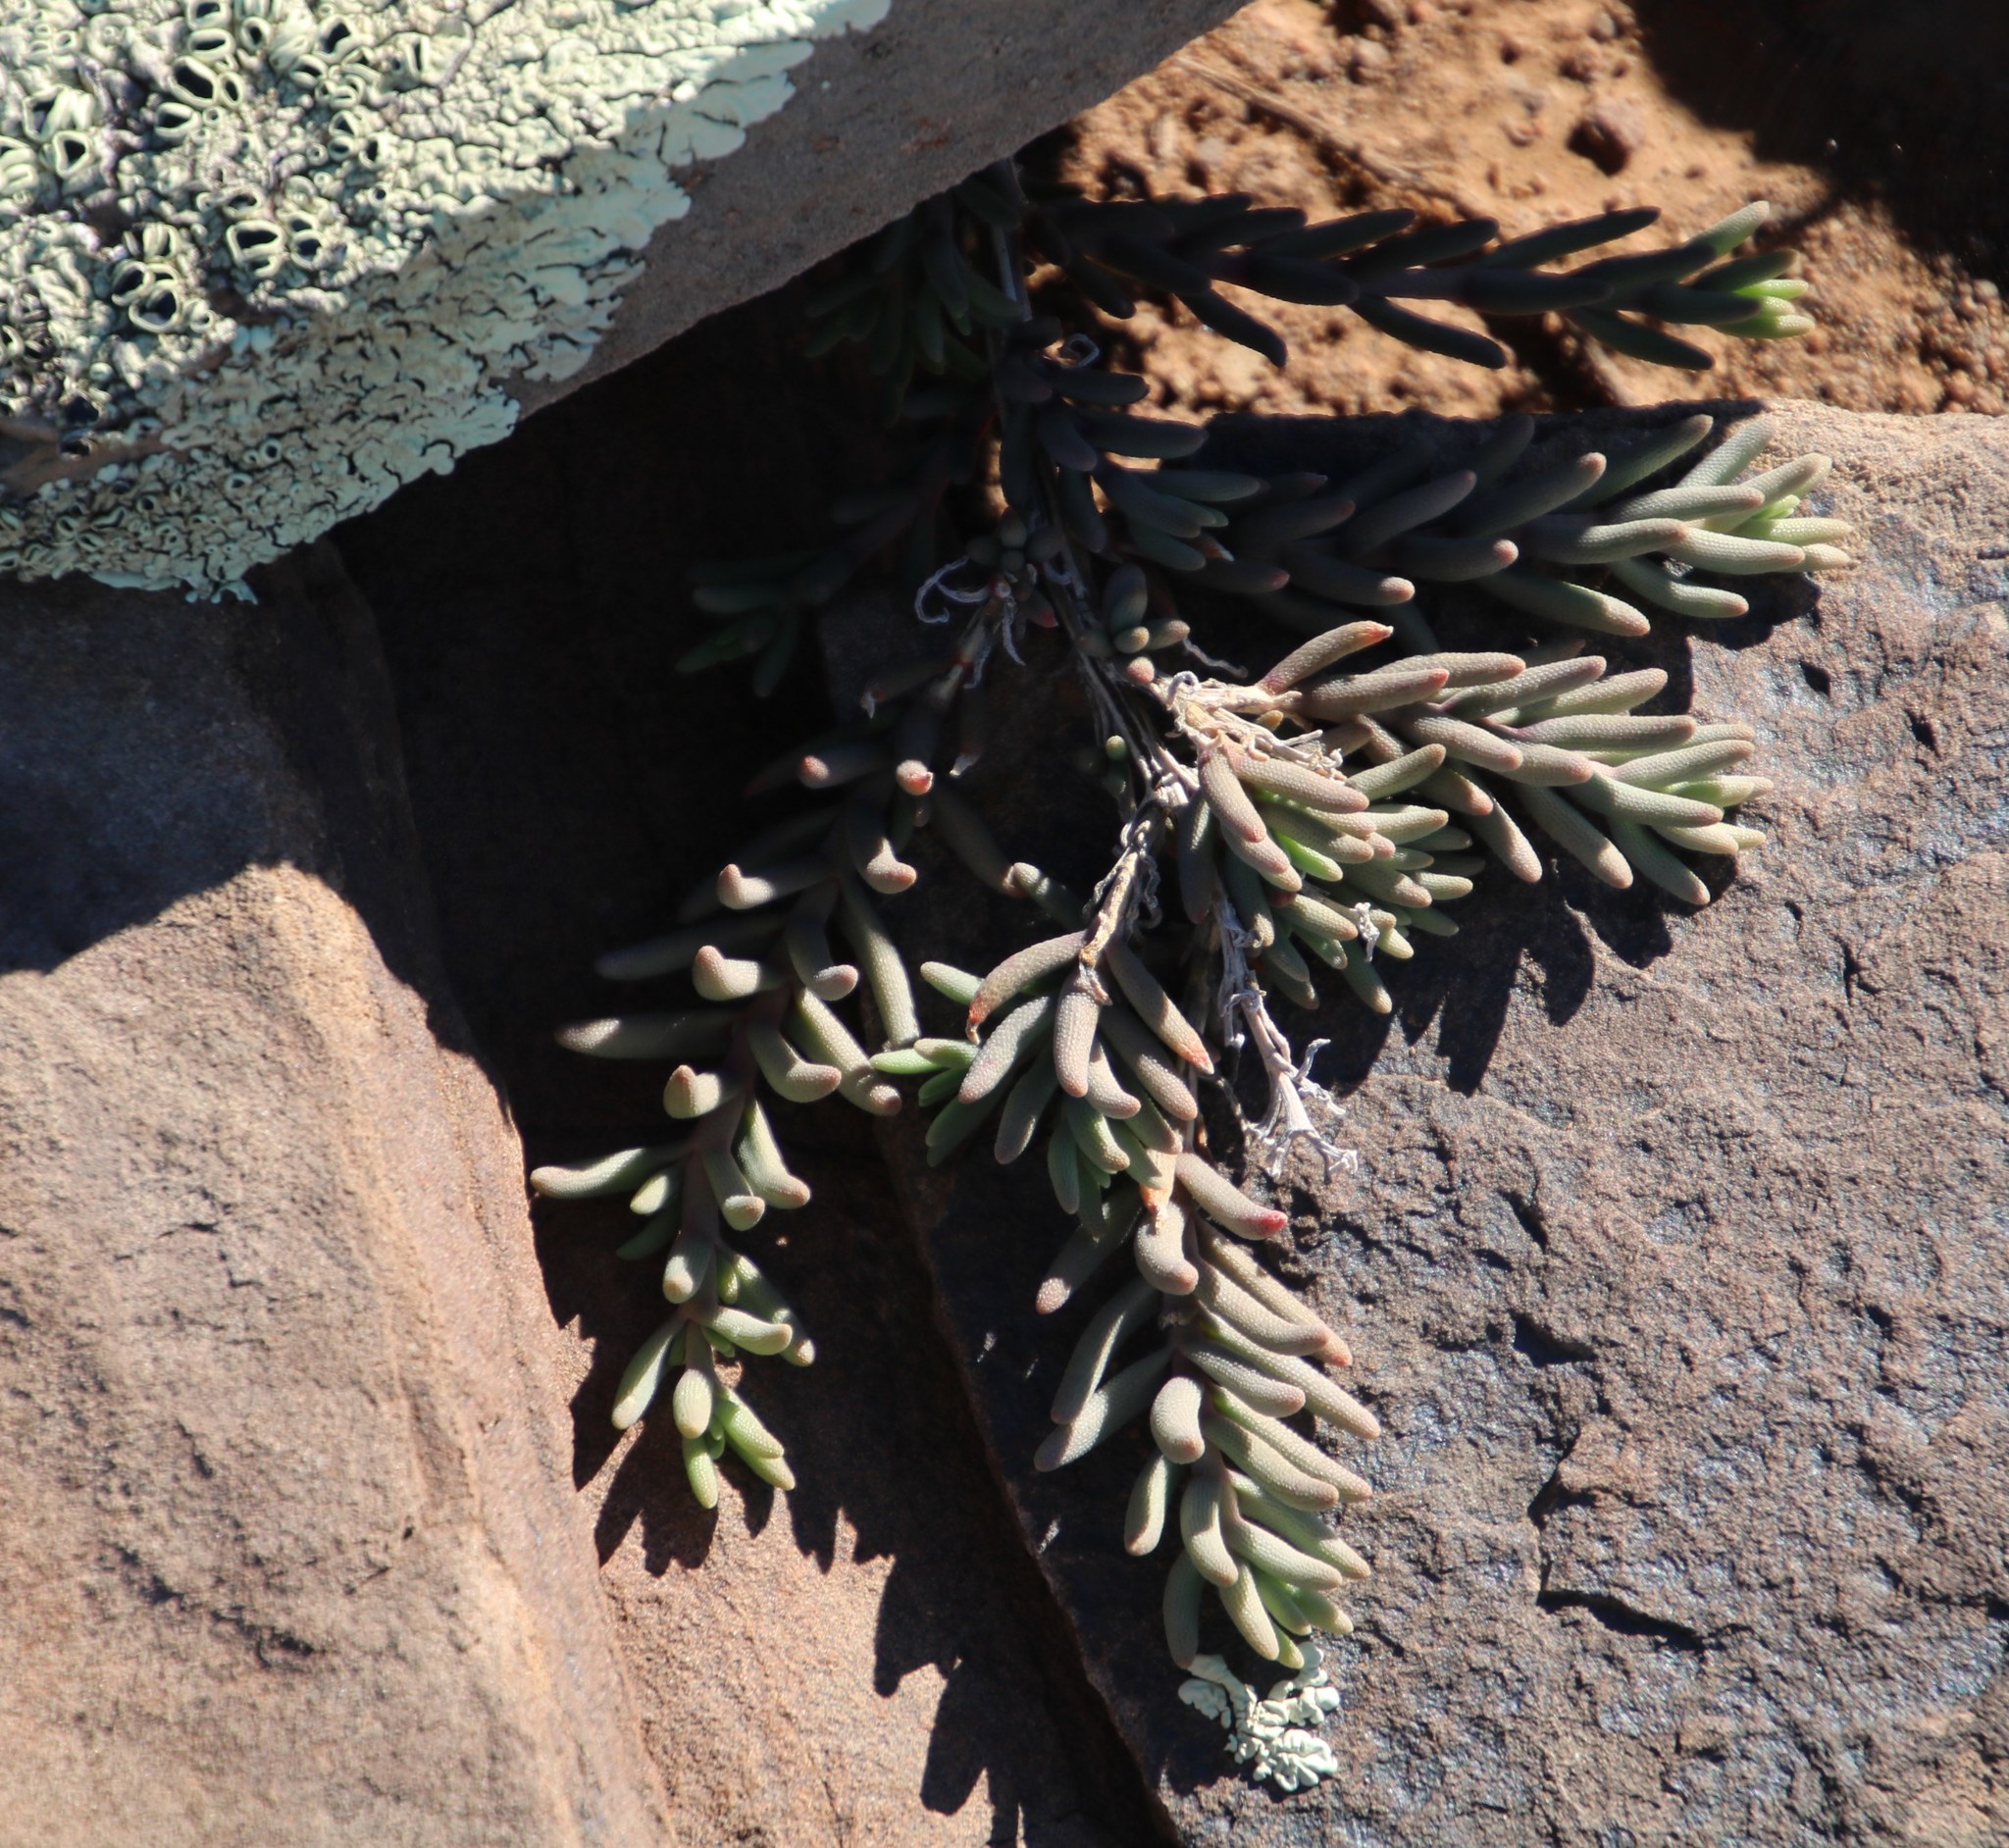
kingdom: Plantae
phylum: Tracheophyta
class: Magnoliopsida
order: Caryophyllales
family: Aizoaceae
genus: Mesembryanthemum
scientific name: Mesembryanthemum grossum
